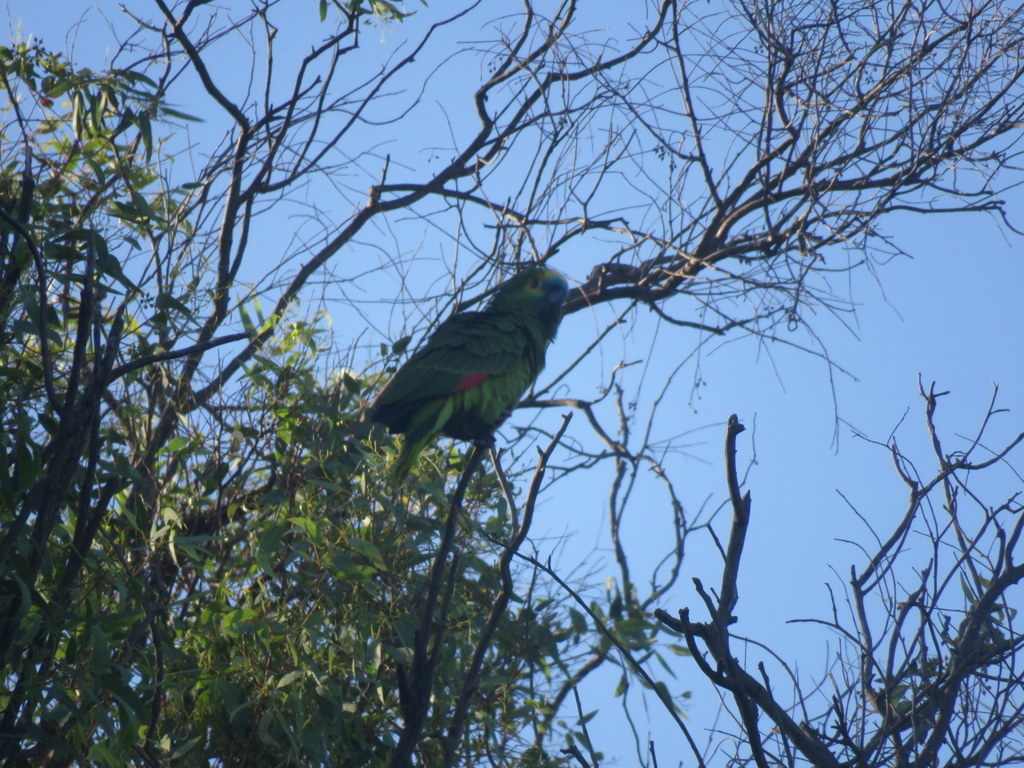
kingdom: Animalia
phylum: Chordata
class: Aves
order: Psittaciformes
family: Psittacidae
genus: Amazona
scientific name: Amazona aestiva
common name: Turquoise-fronted amazon
